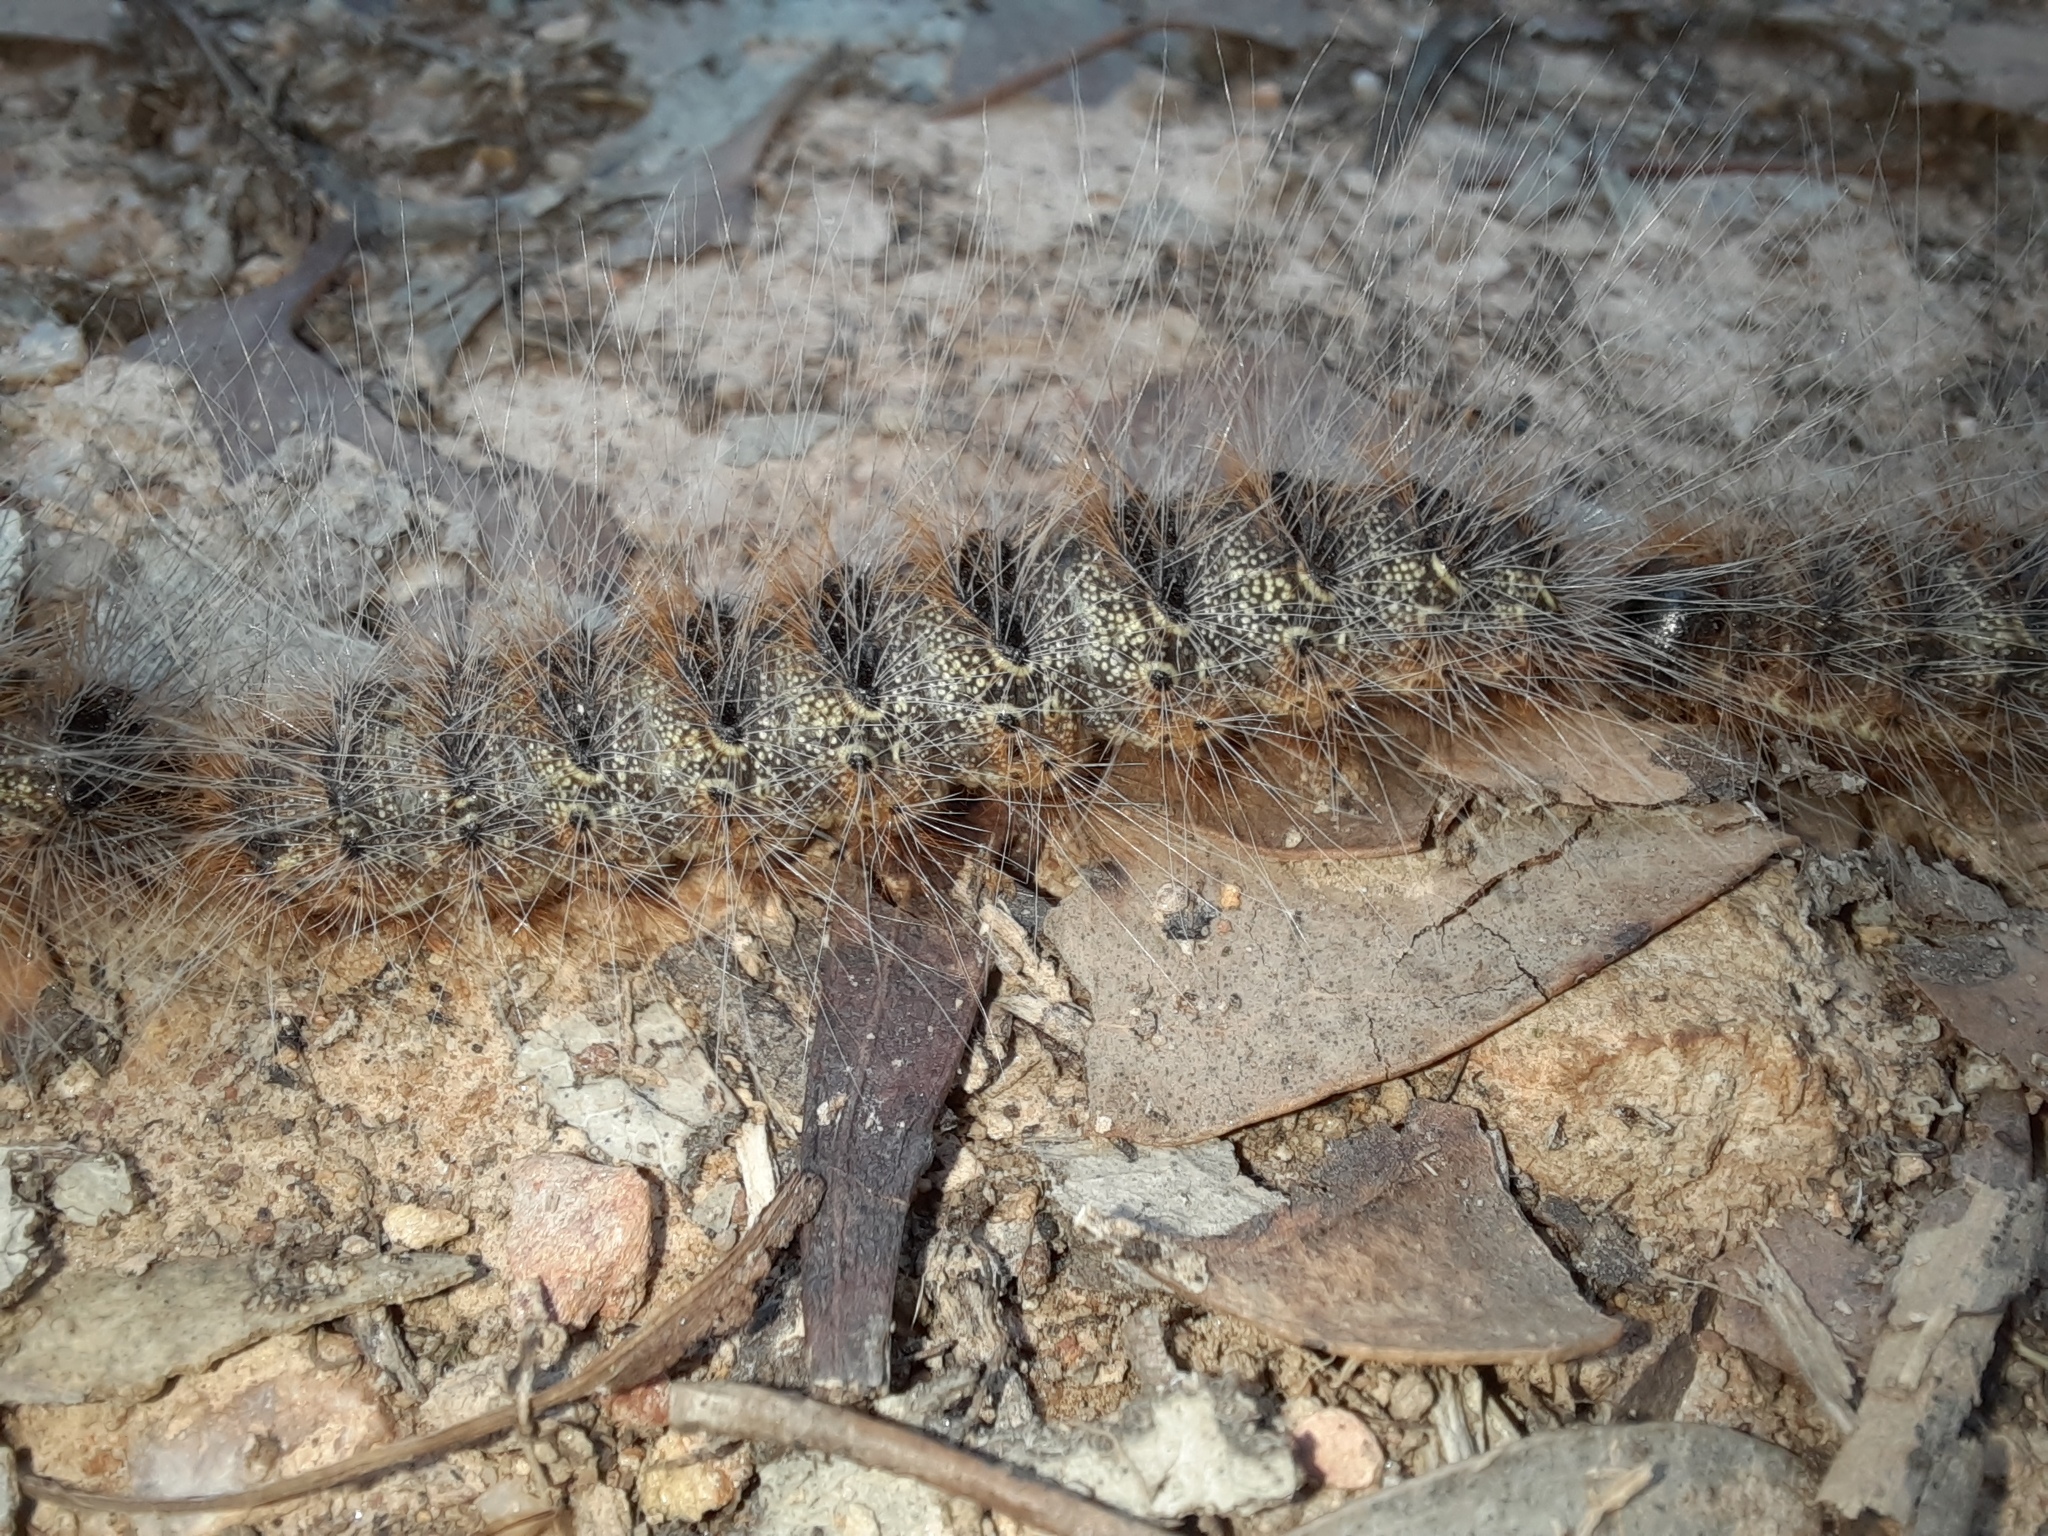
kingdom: Animalia
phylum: Arthropoda
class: Insecta
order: Lepidoptera
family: Notodontidae
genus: Ochrogaster
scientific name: Ochrogaster lunifer
